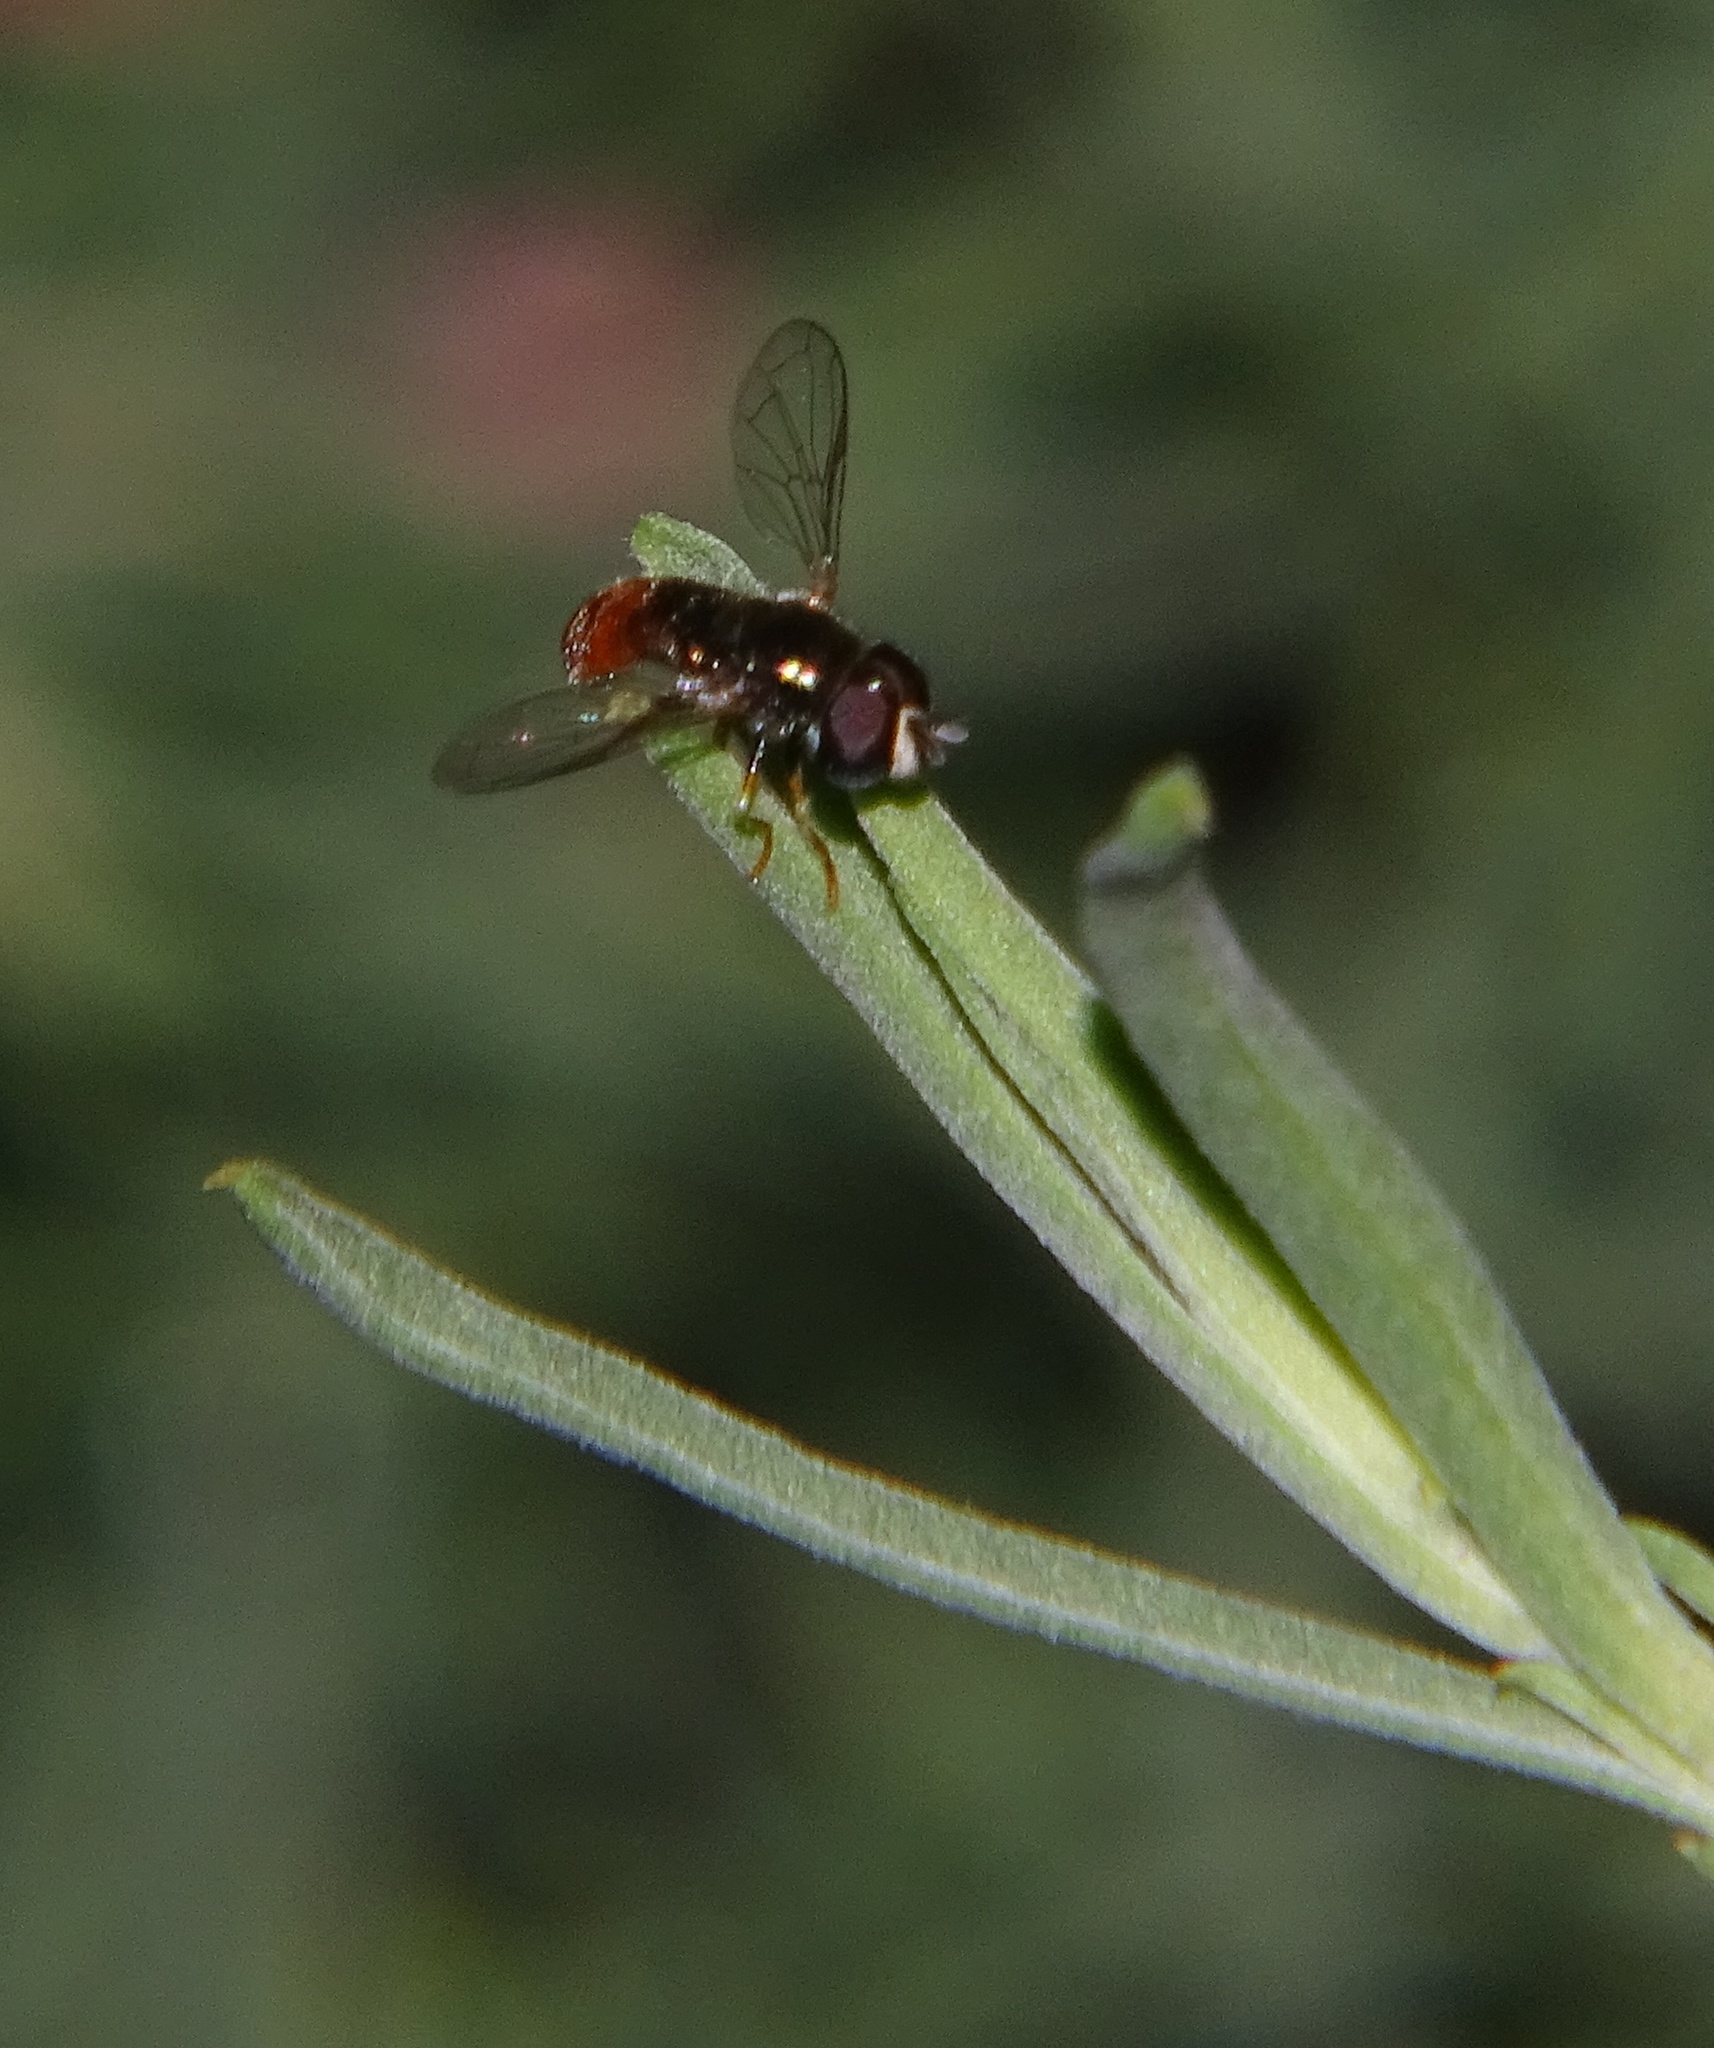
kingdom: Animalia
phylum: Arthropoda
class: Insecta
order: Diptera
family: Syrphidae
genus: Paragus
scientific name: Paragus haemorrhous
